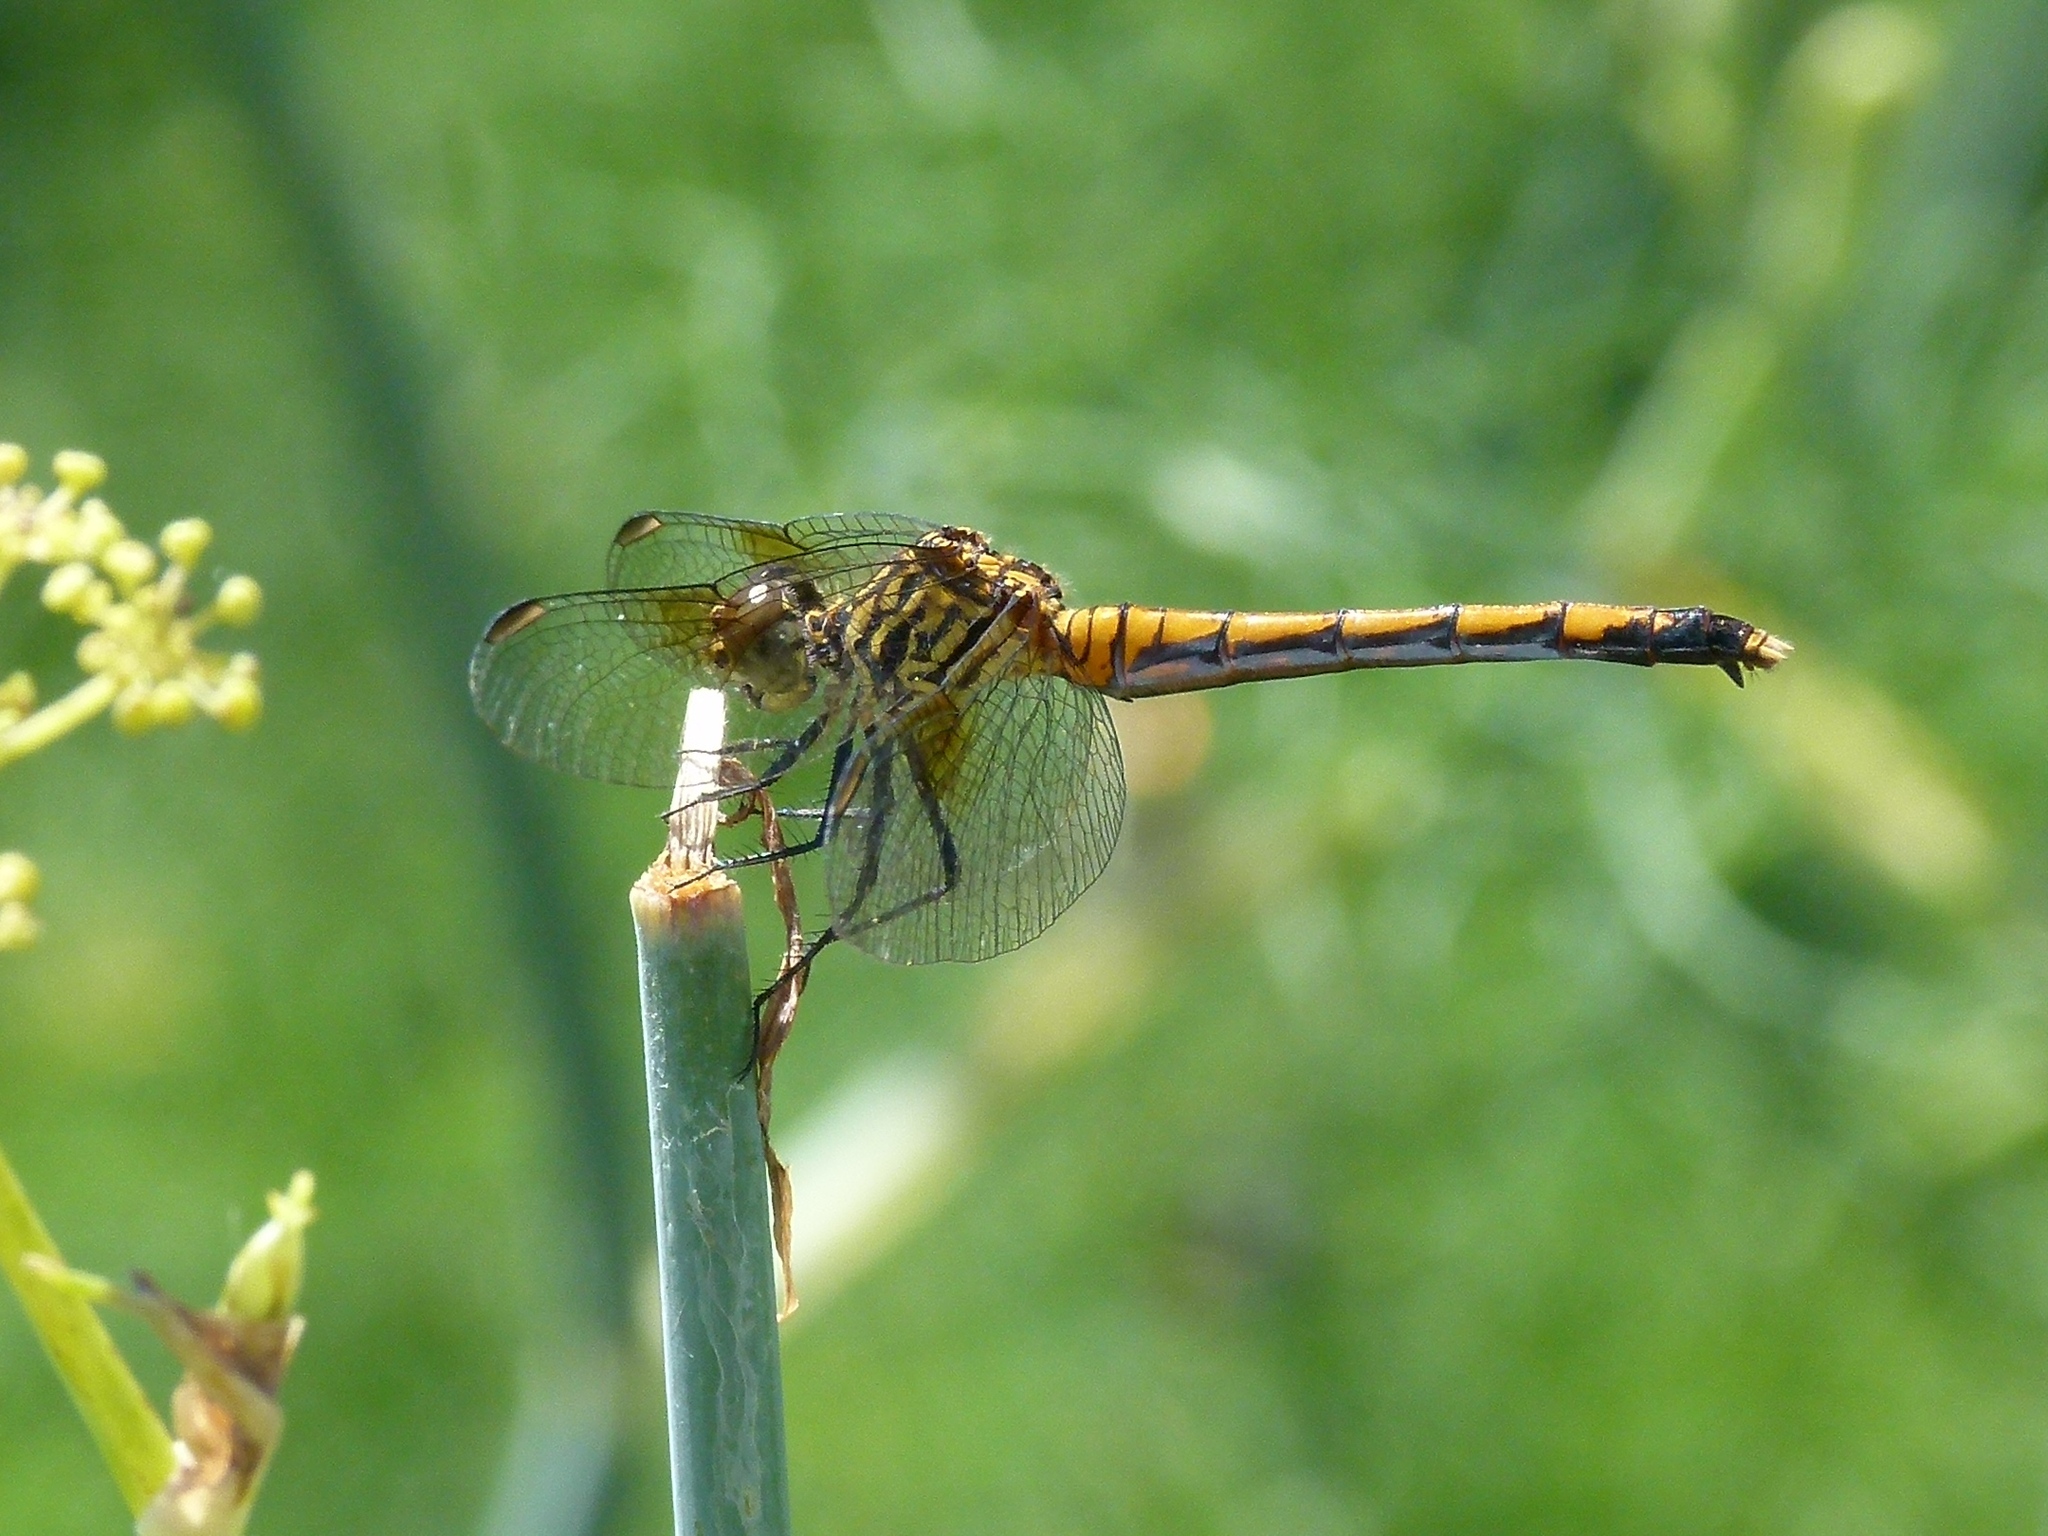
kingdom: Animalia
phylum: Arthropoda
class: Insecta
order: Odonata
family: Libellulidae
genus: Erythrodiplax
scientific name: Erythrodiplax berenice
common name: Seaside dragonlet
